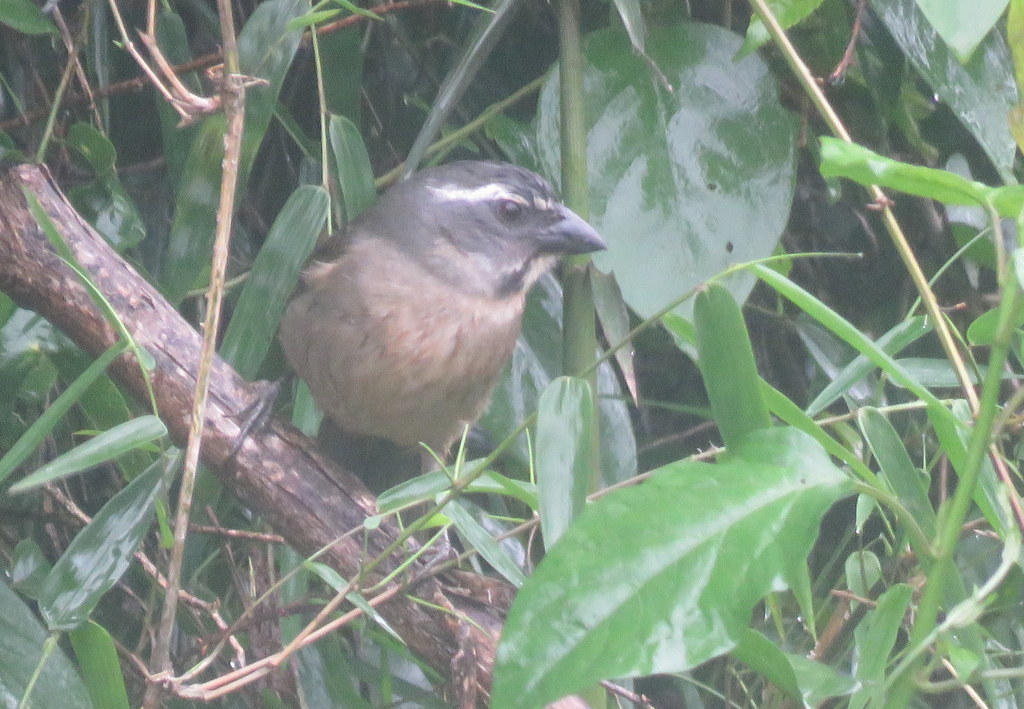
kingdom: Animalia
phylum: Chordata
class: Aves
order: Passeriformes
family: Thraupidae
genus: Saltator
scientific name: Saltator similis
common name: Green-winged saltator
